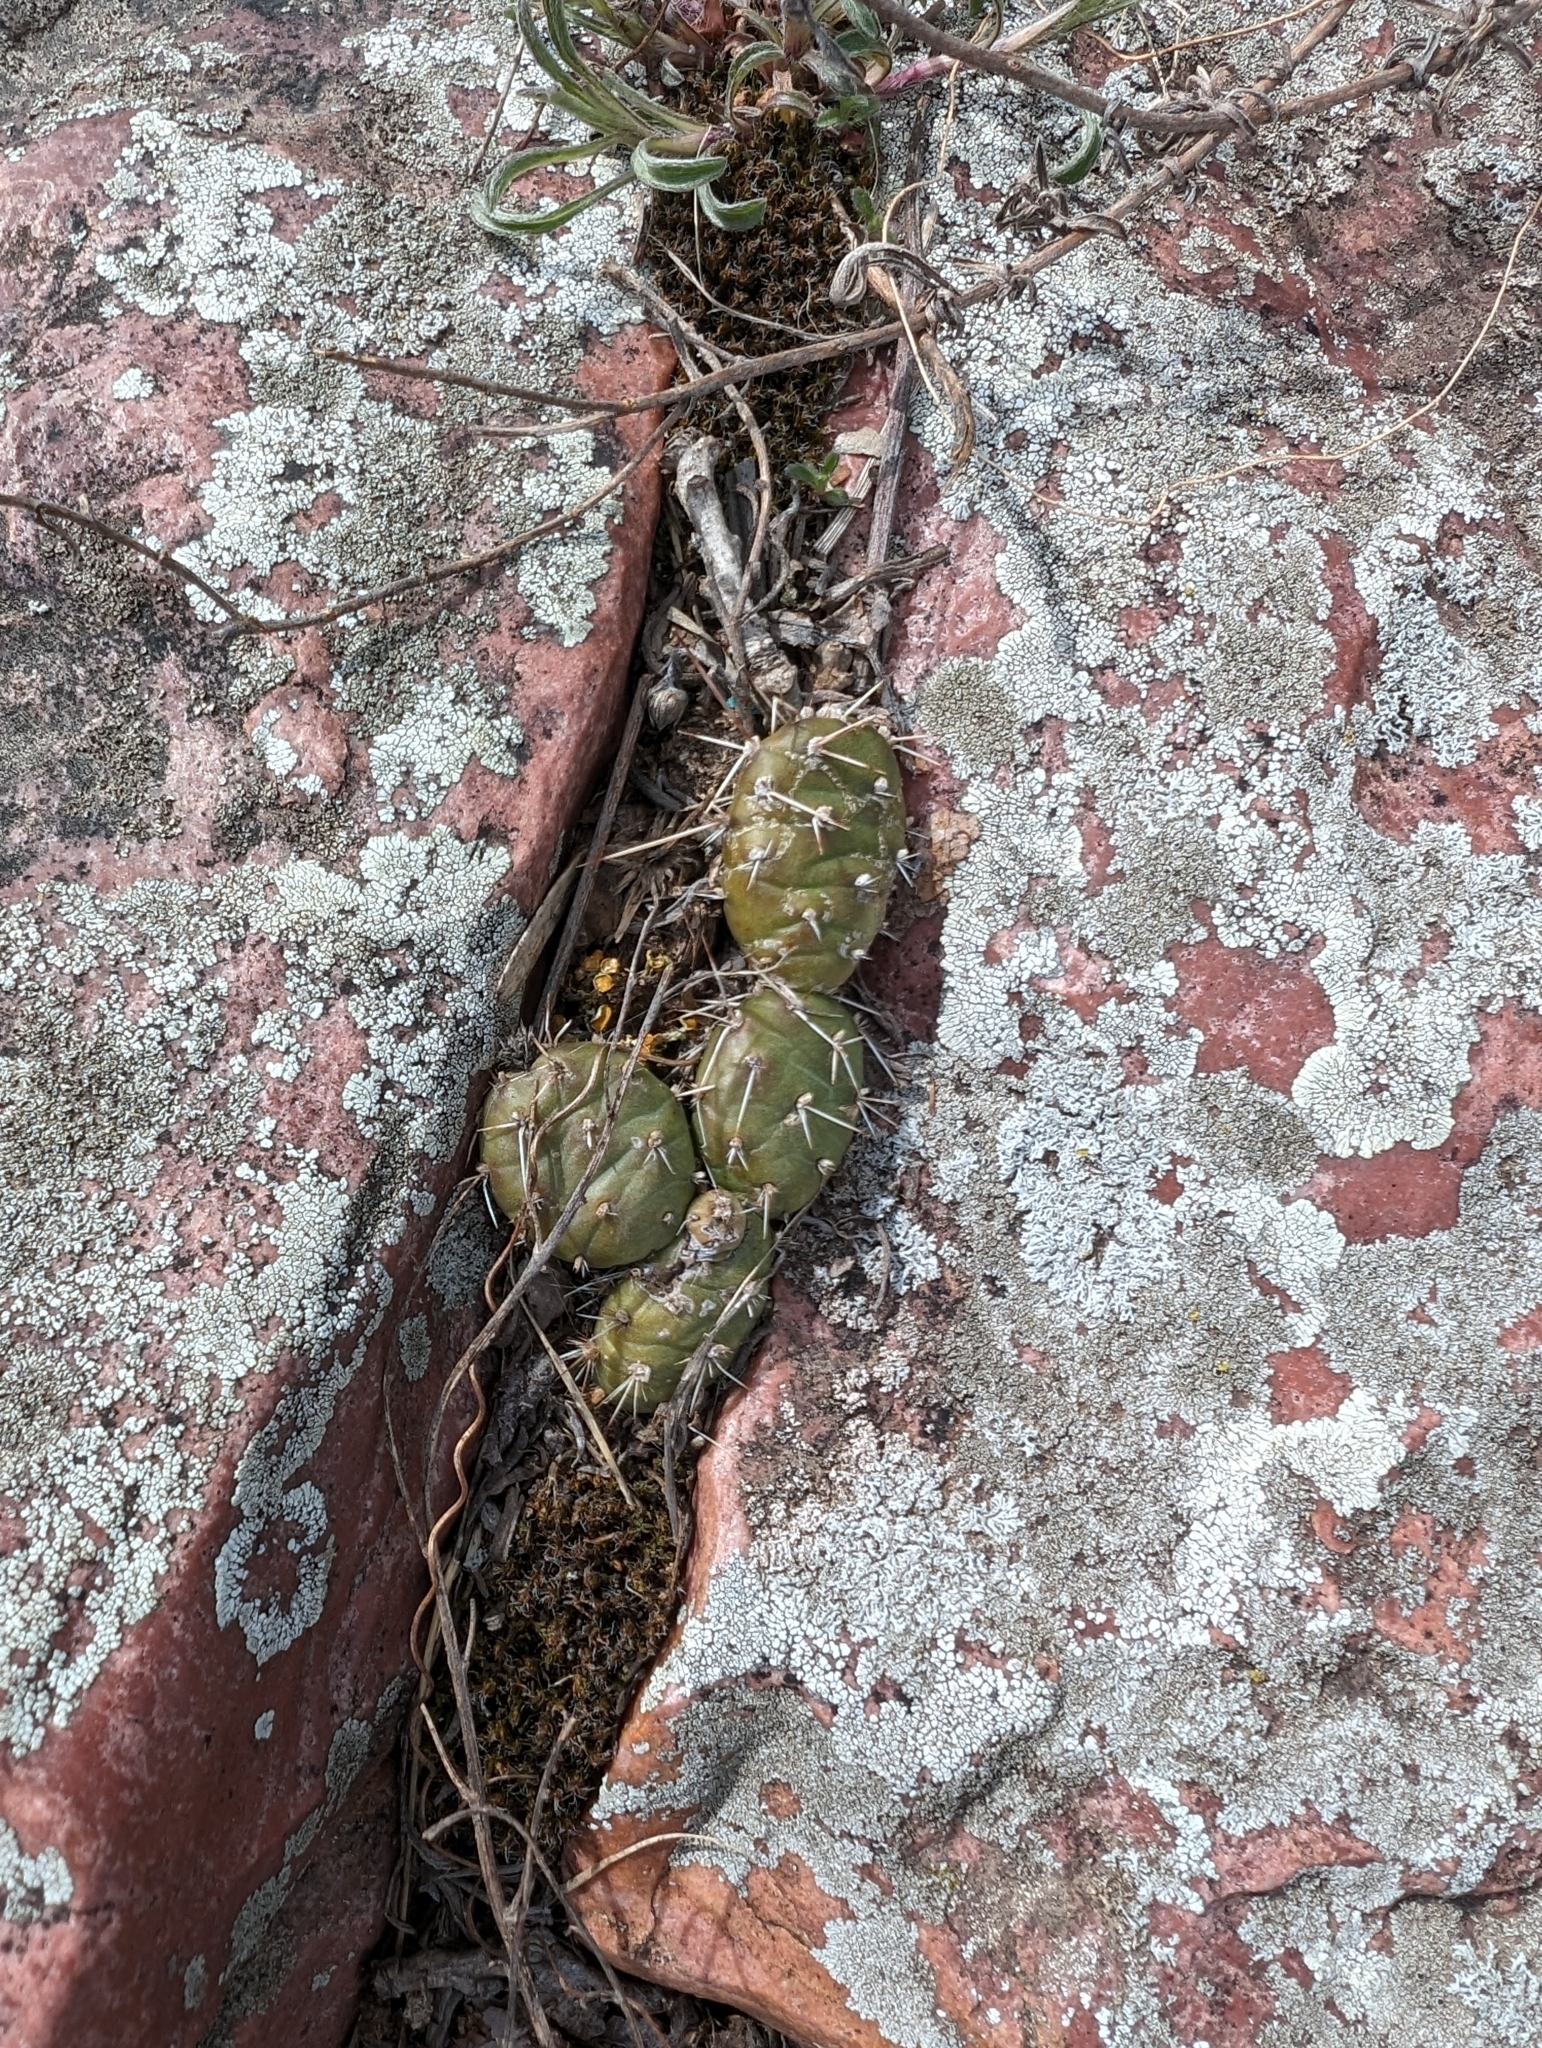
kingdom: Plantae
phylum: Tracheophyta
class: Magnoliopsida
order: Caryophyllales
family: Cactaceae
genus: Opuntia
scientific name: Opuntia fragilis
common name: Brittle cactus
